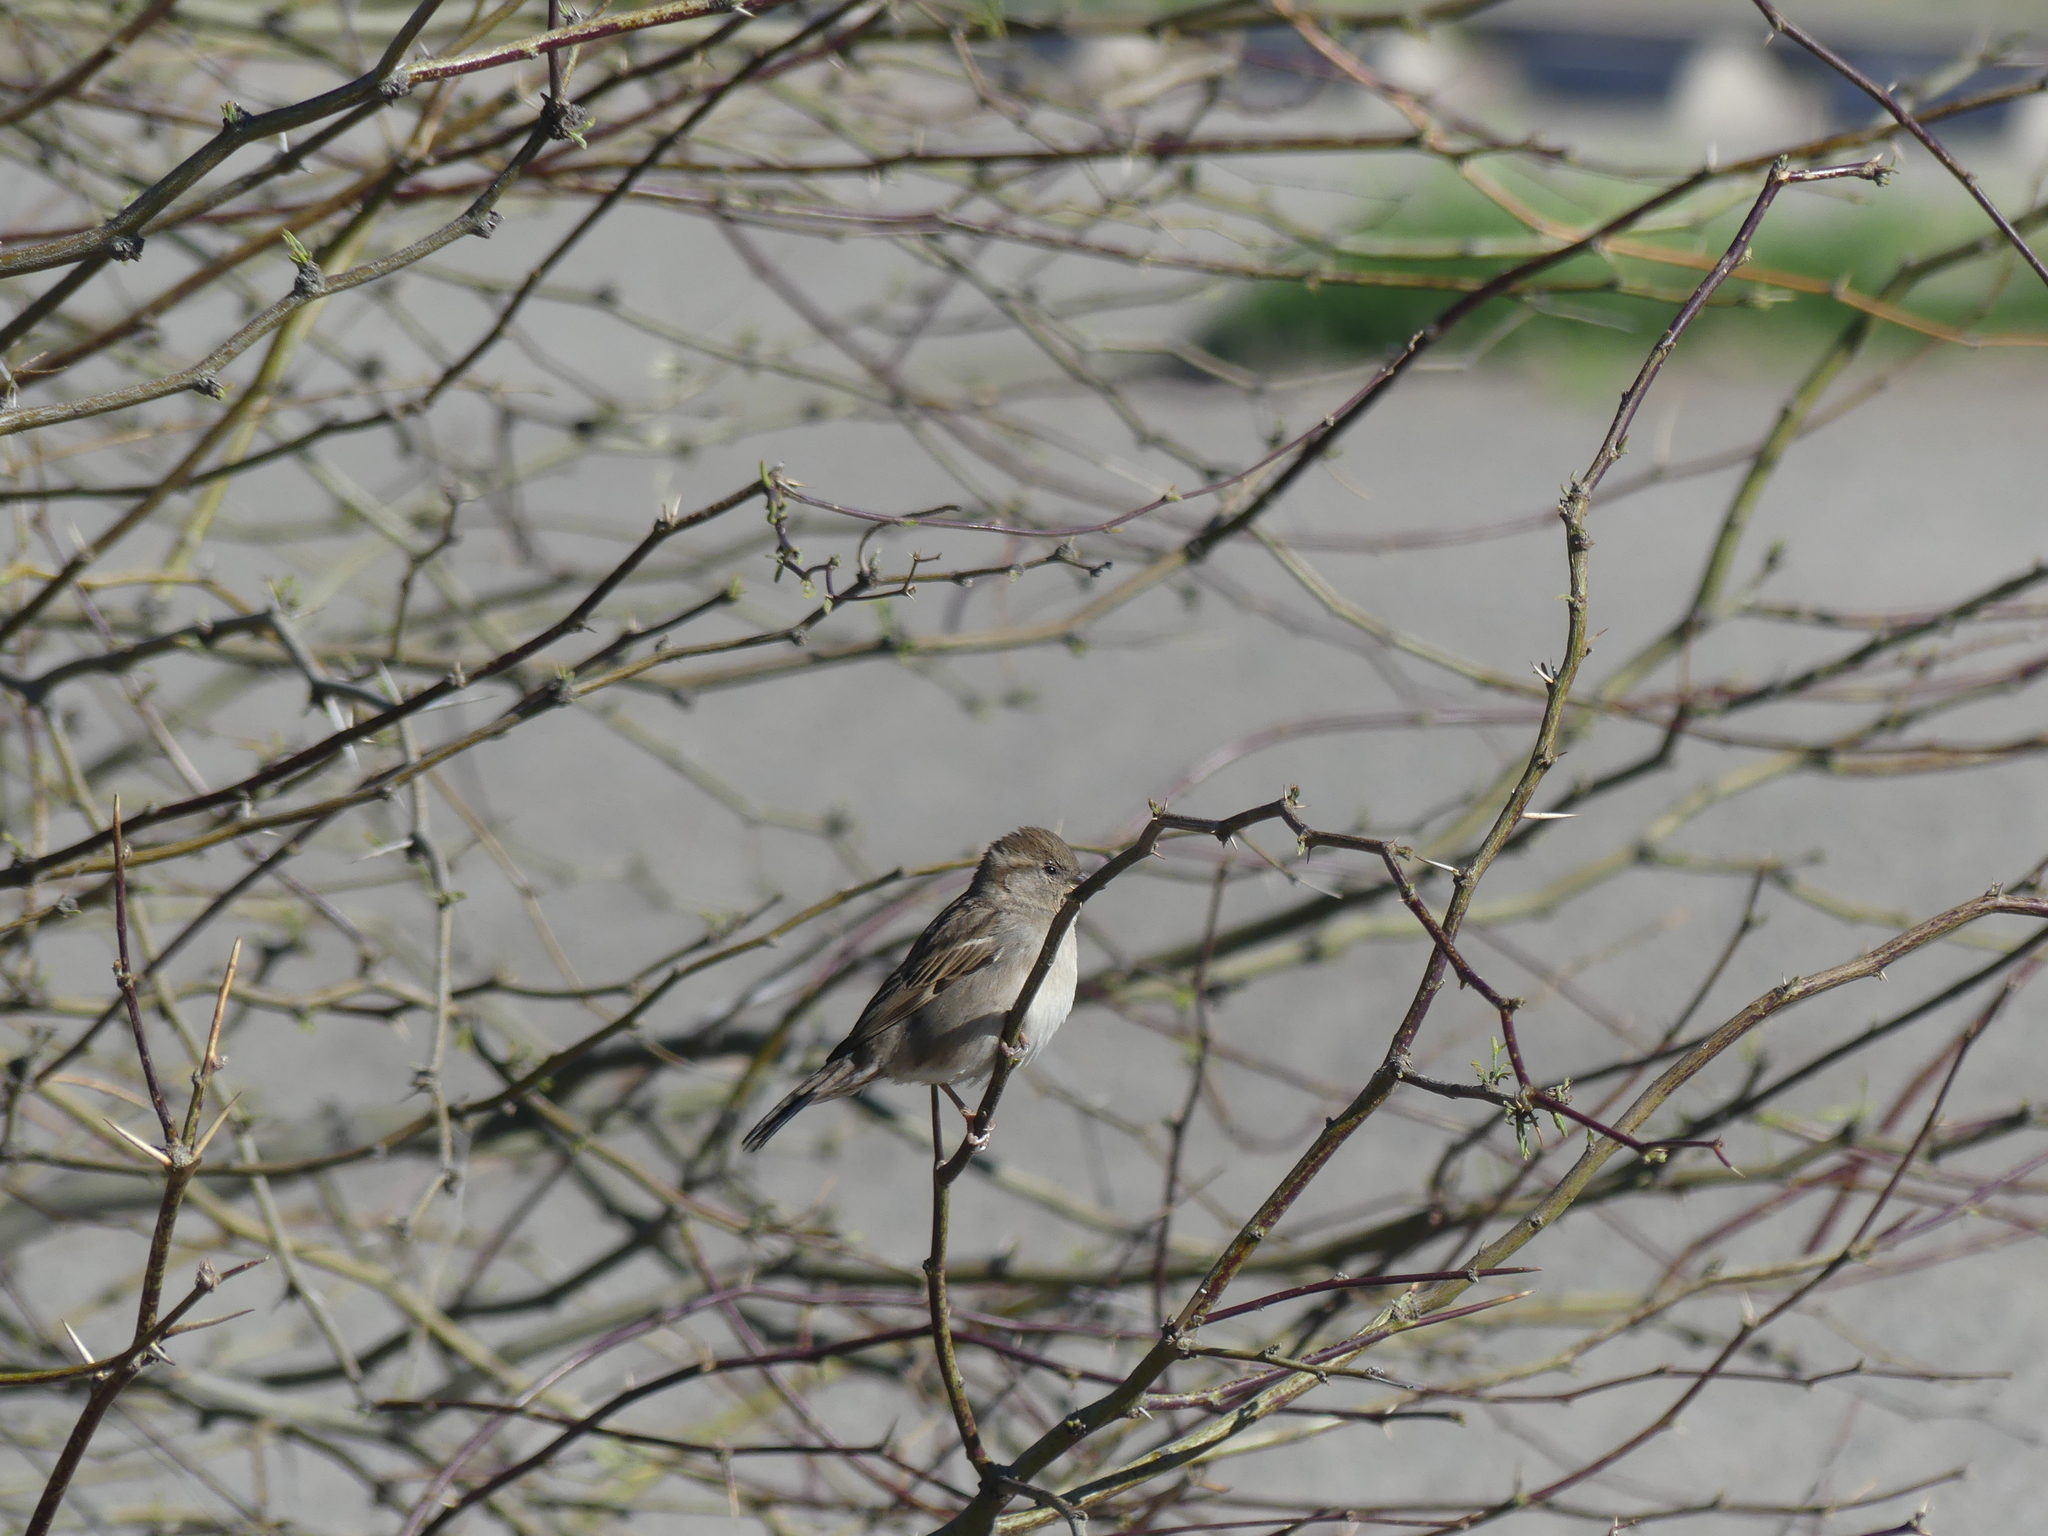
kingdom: Animalia
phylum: Chordata
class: Aves
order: Passeriformes
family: Passeridae
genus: Passer
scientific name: Passer domesticus
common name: House sparrow
